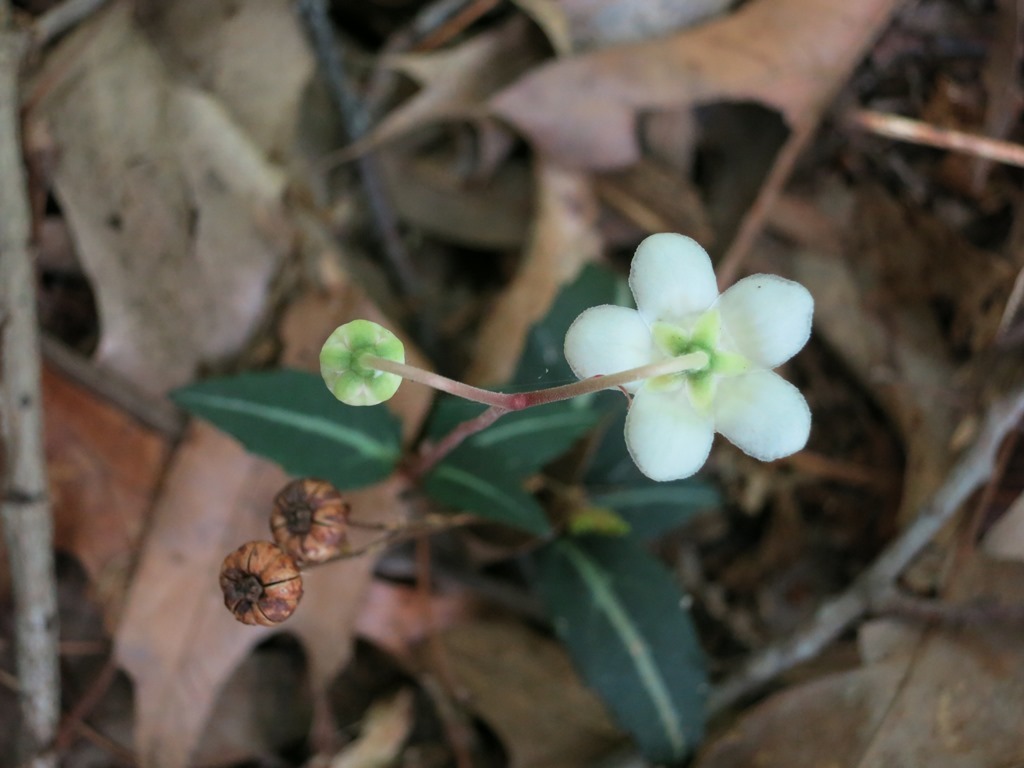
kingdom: Plantae
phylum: Tracheophyta
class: Magnoliopsida
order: Ericales
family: Ericaceae
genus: Chimaphila
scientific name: Chimaphila maculata
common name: Spotted pipsissewa
